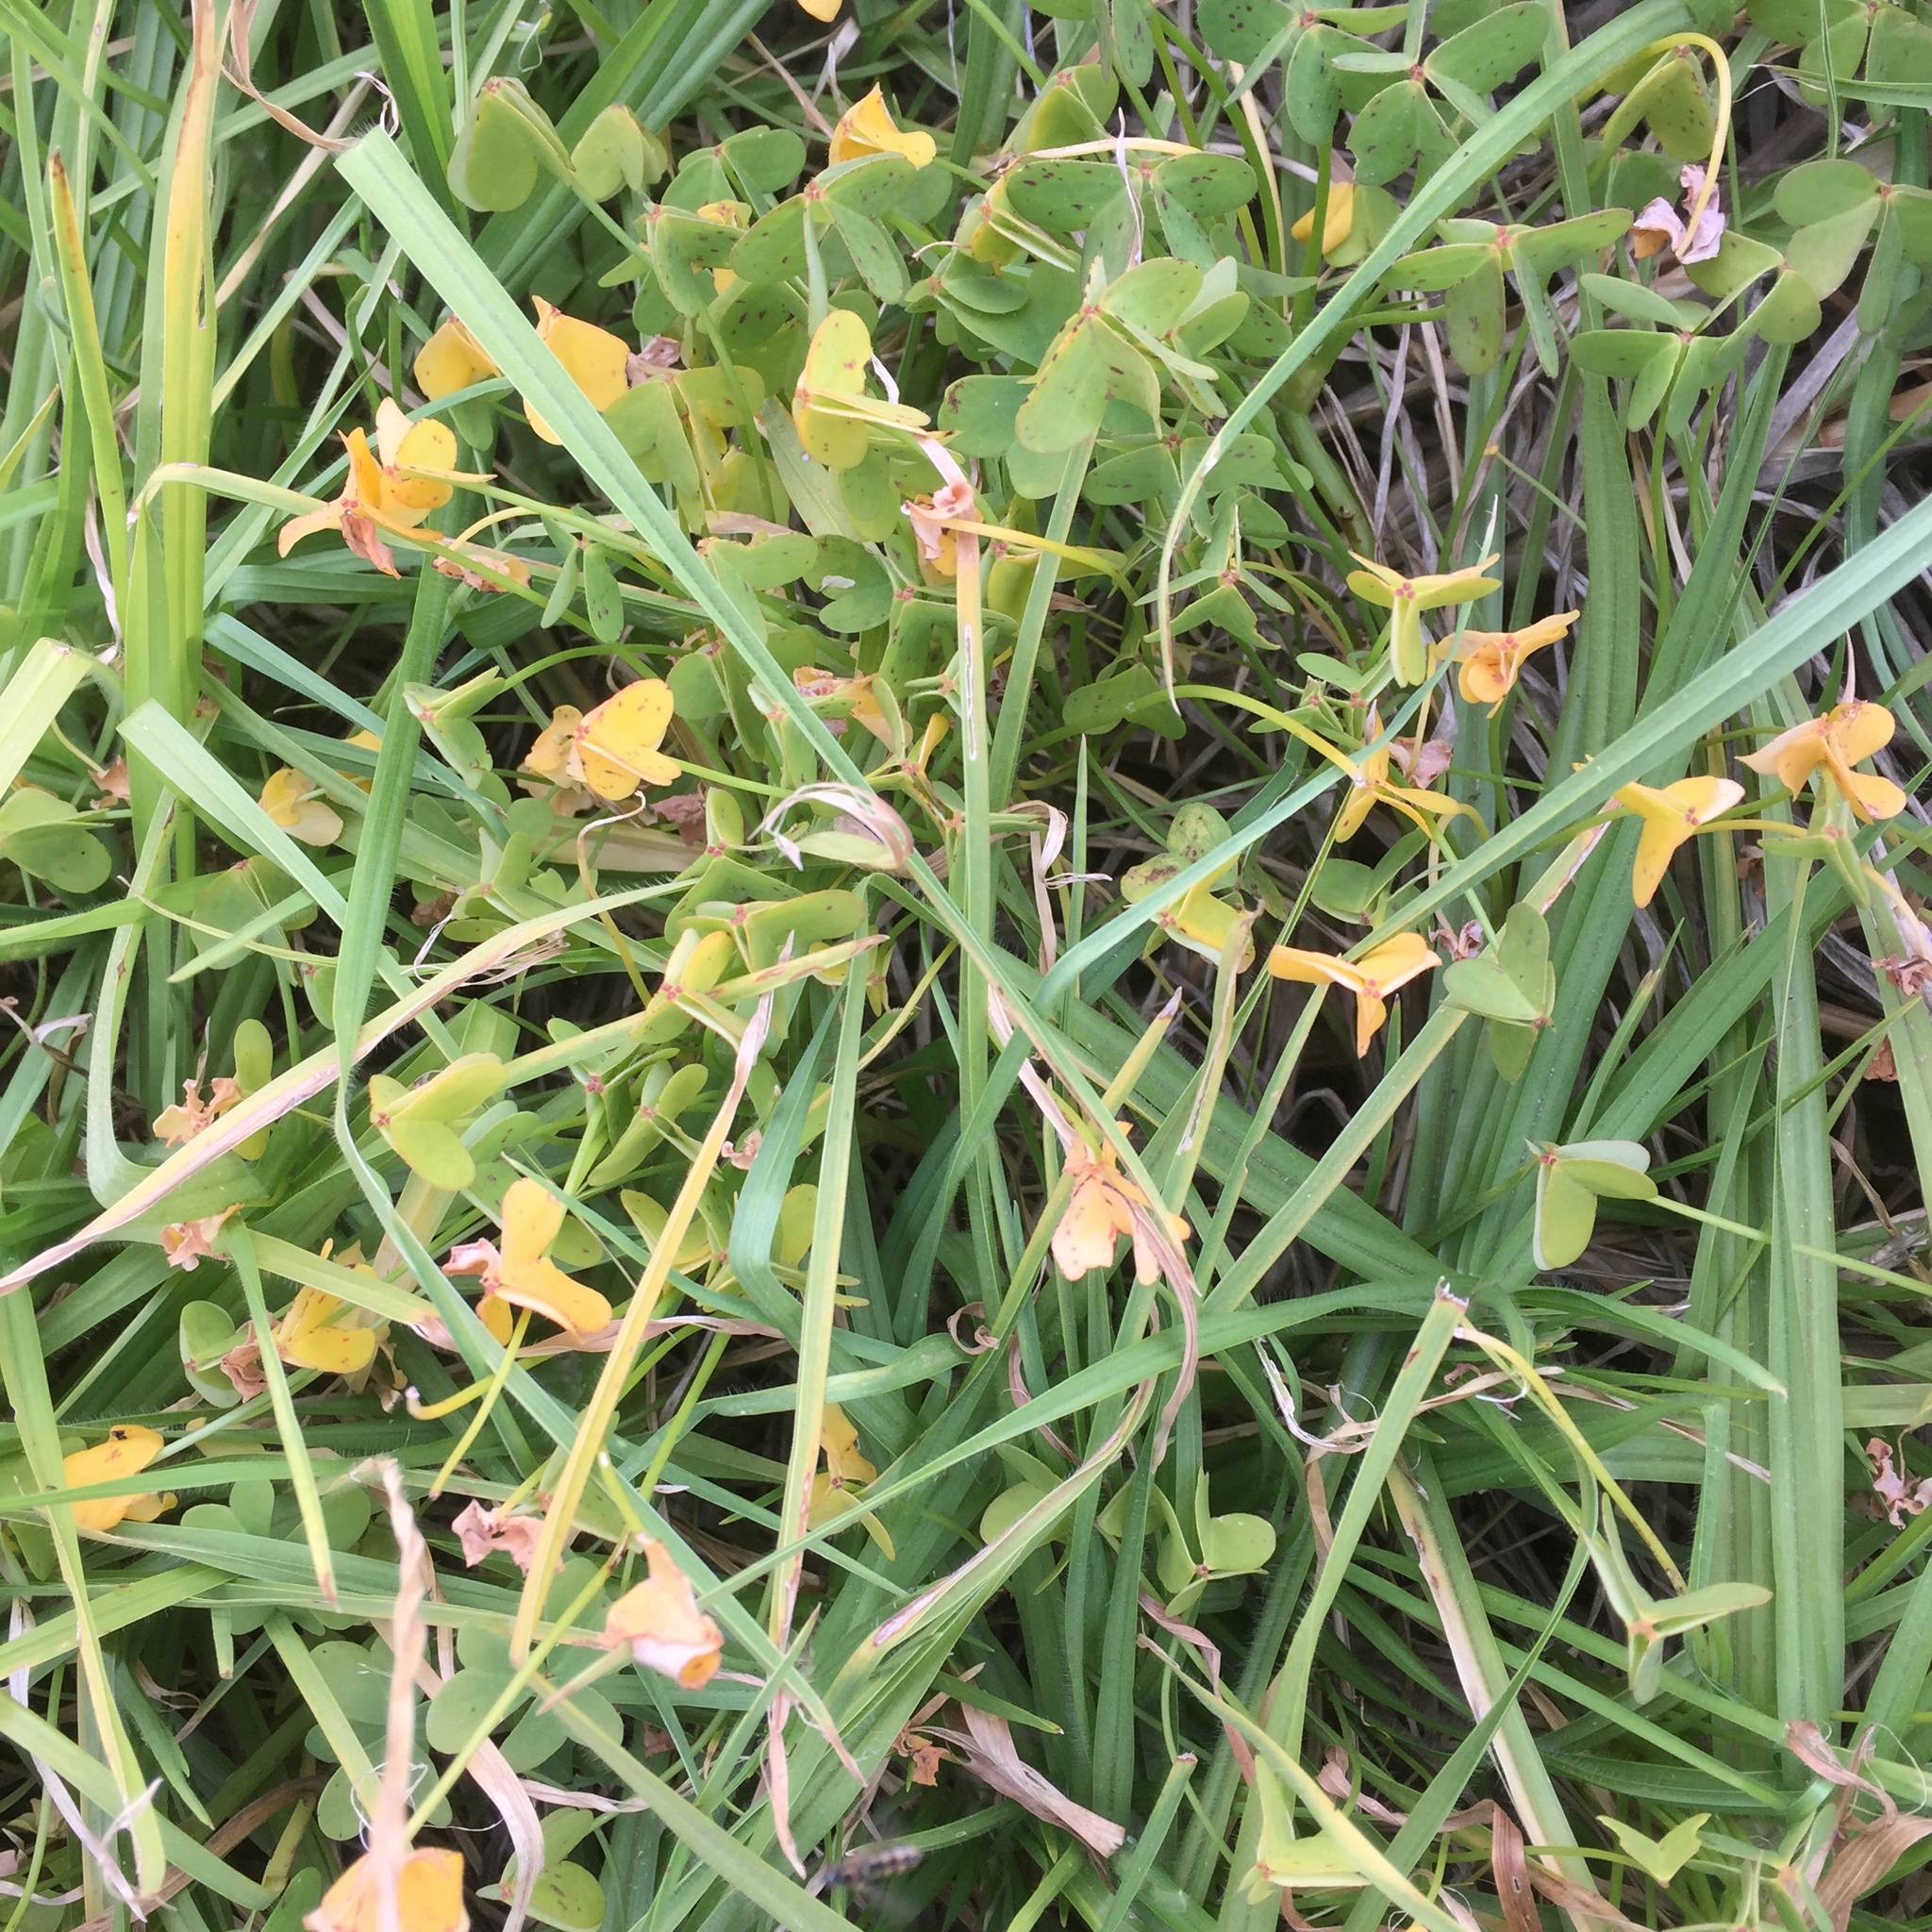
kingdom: Plantae
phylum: Tracheophyta
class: Magnoliopsida
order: Oxalidales
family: Oxalidaceae
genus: Oxalis
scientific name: Oxalis pes-caprae
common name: Bermuda-buttercup
